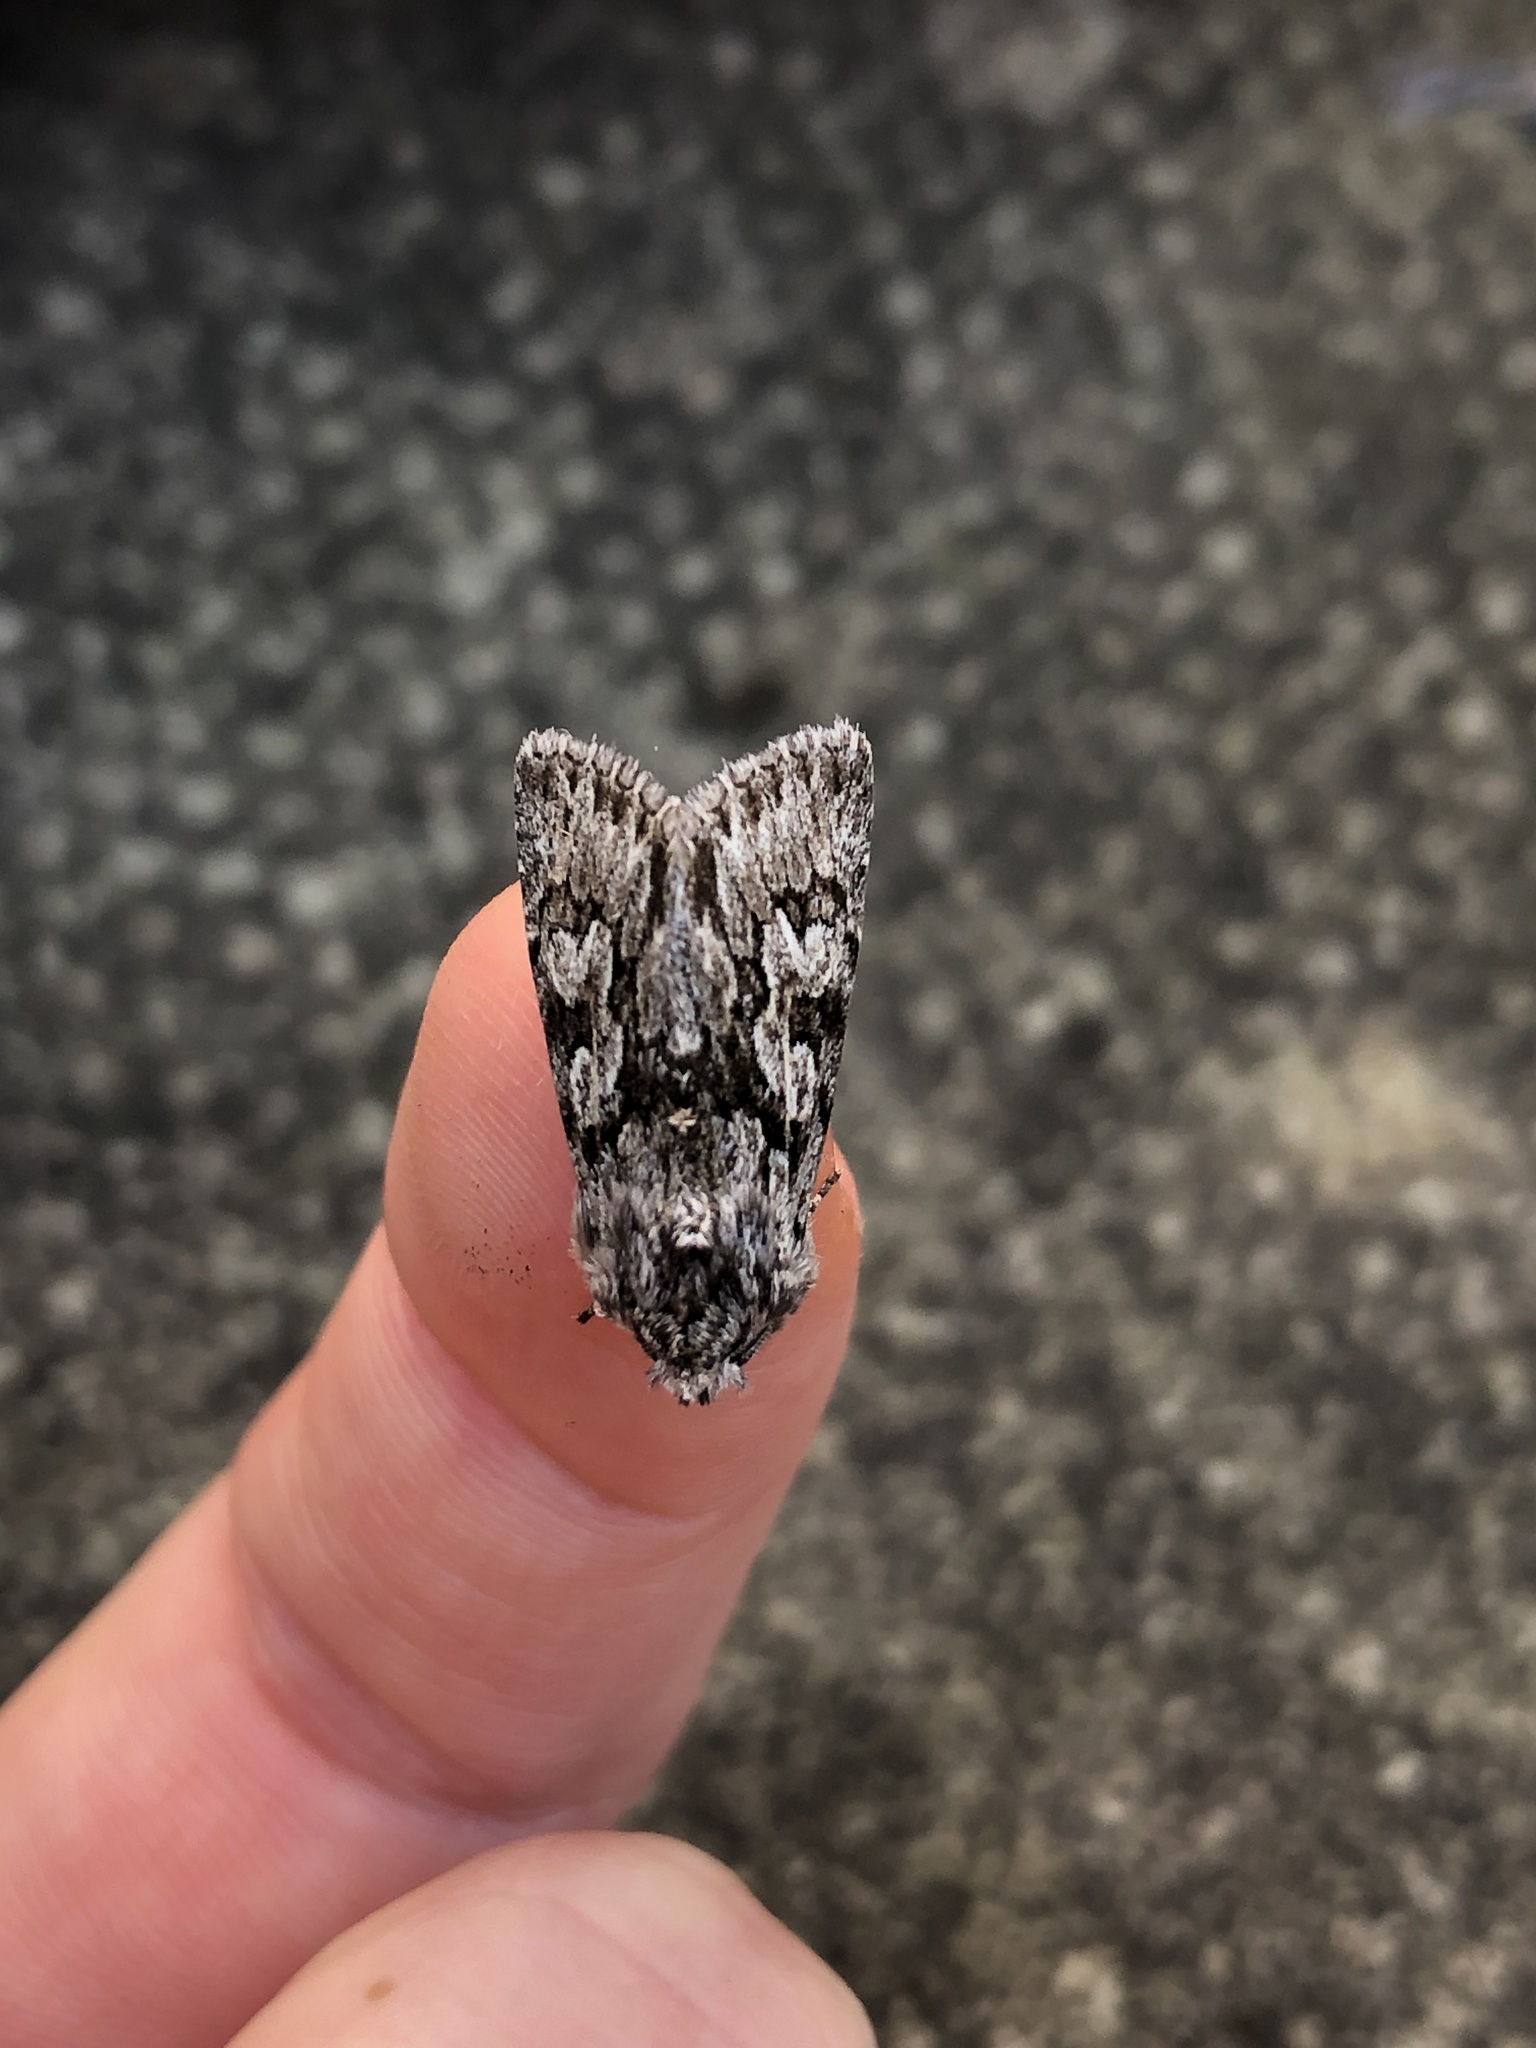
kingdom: Animalia
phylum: Arthropoda
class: Insecta
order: Lepidoptera
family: Noctuidae
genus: Xylocampa
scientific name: Xylocampa areola
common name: Early grey
